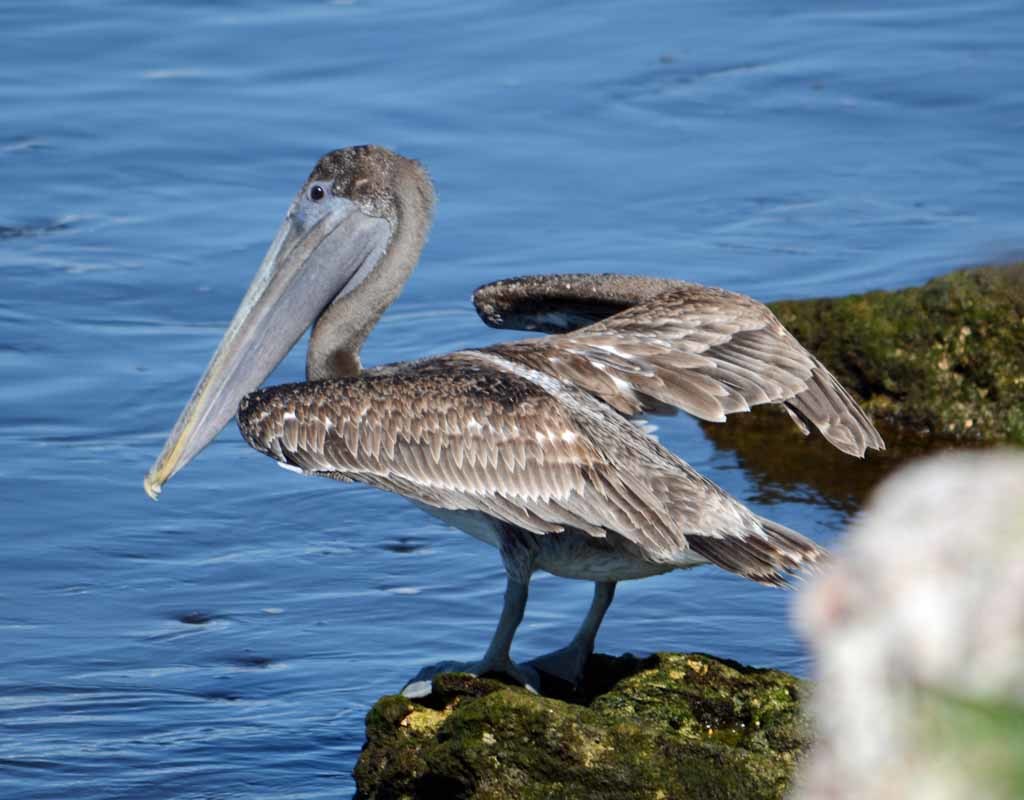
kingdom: Animalia
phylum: Chordata
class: Aves
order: Pelecaniformes
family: Pelecanidae
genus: Pelecanus
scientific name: Pelecanus occidentalis
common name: Brown pelican
